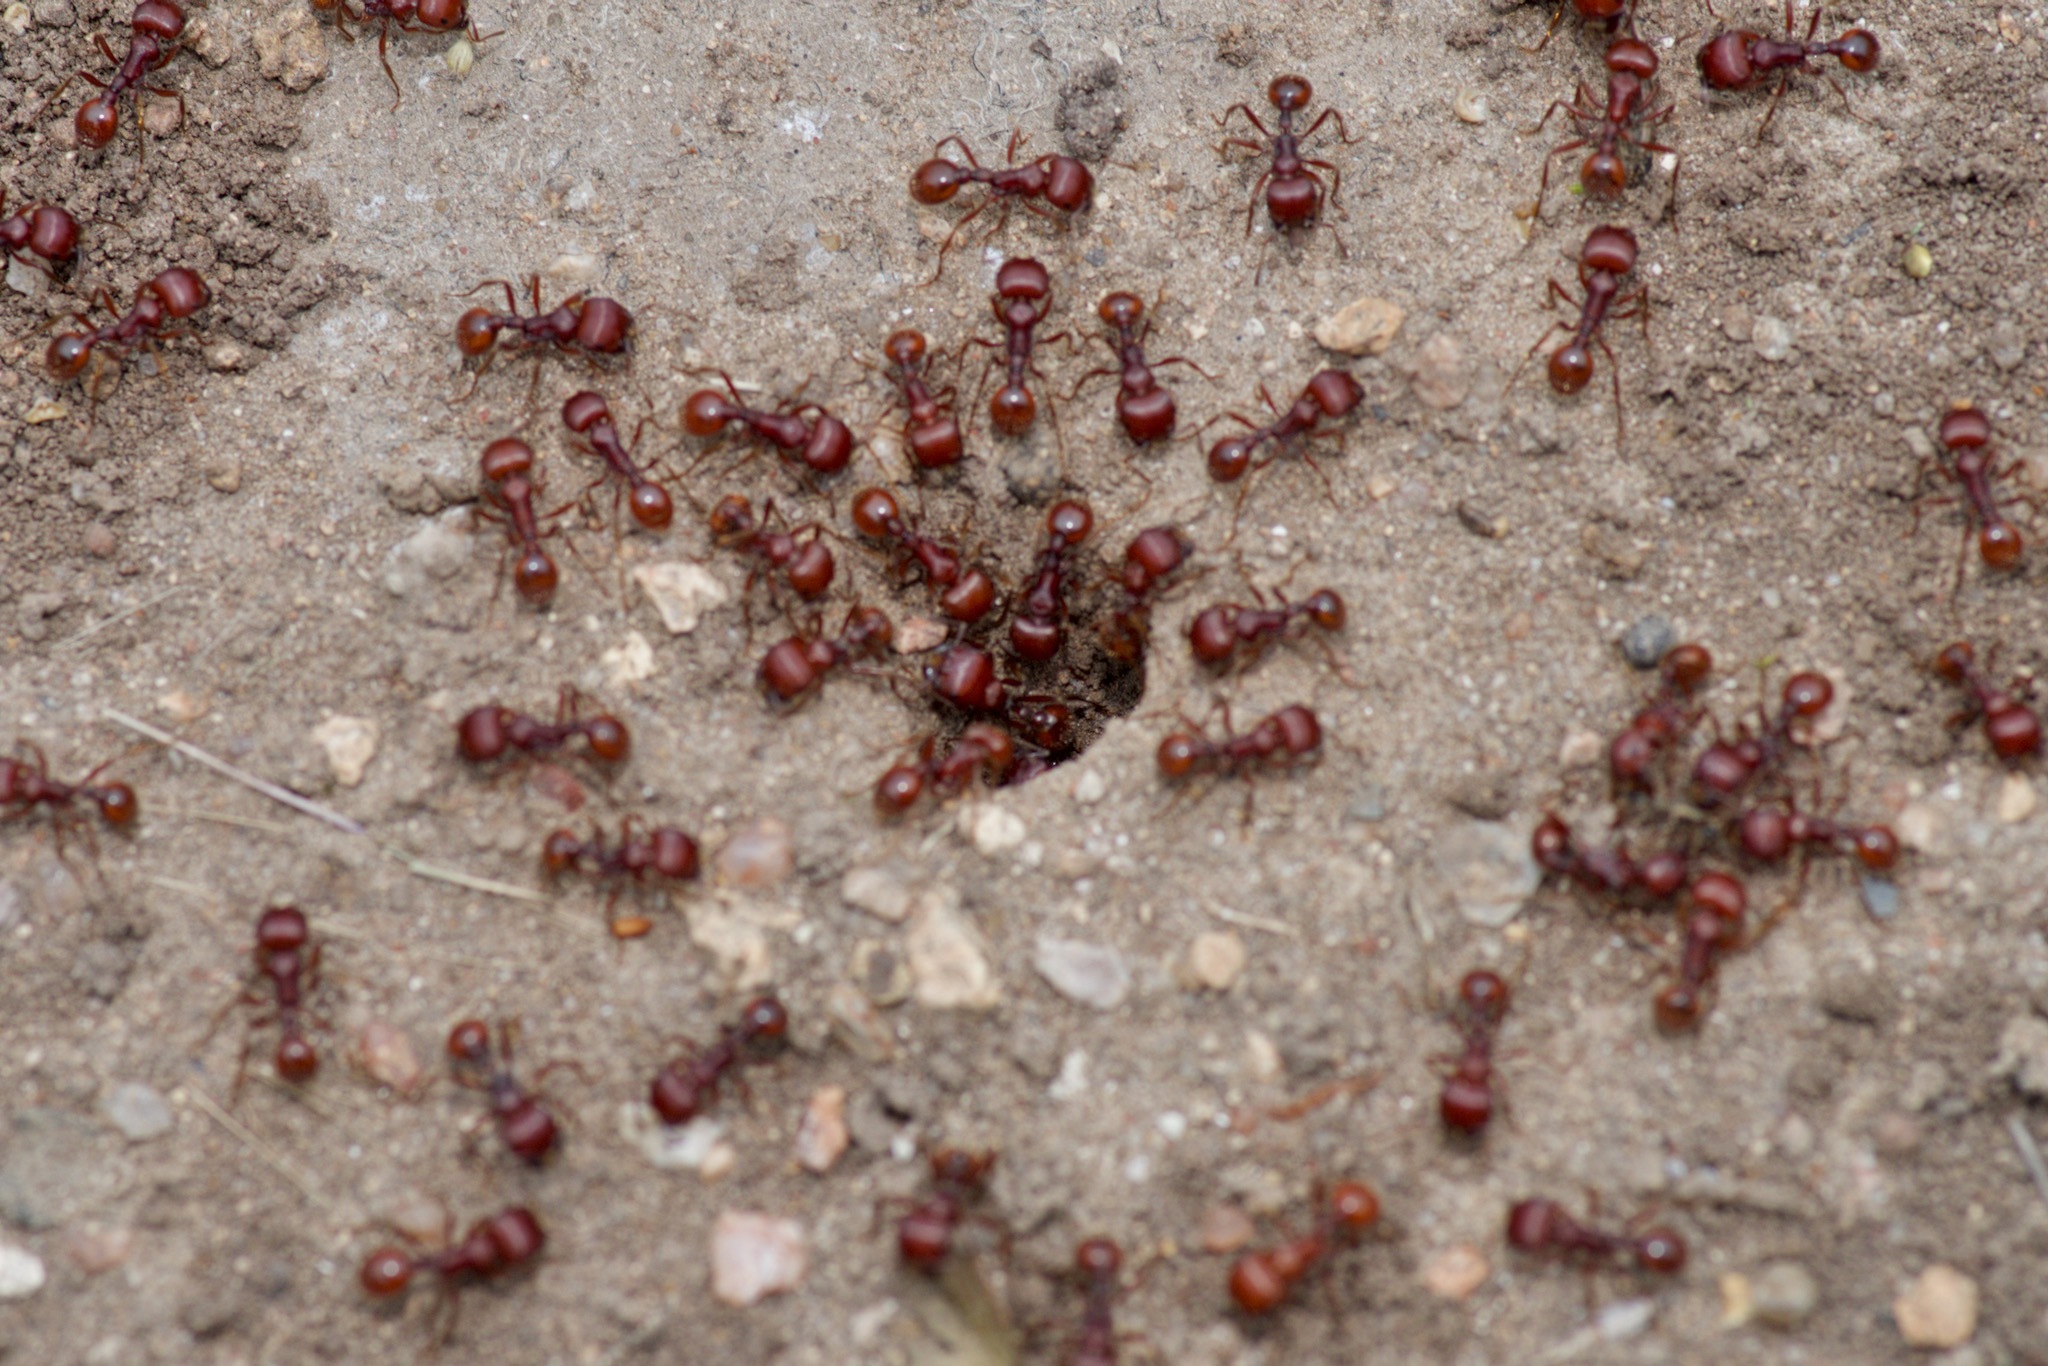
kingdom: Animalia
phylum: Arthropoda
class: Insecta
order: Hymenoptera
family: Formicidae
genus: Pogonomyrmex
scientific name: Pogonomyrmex barbatus
